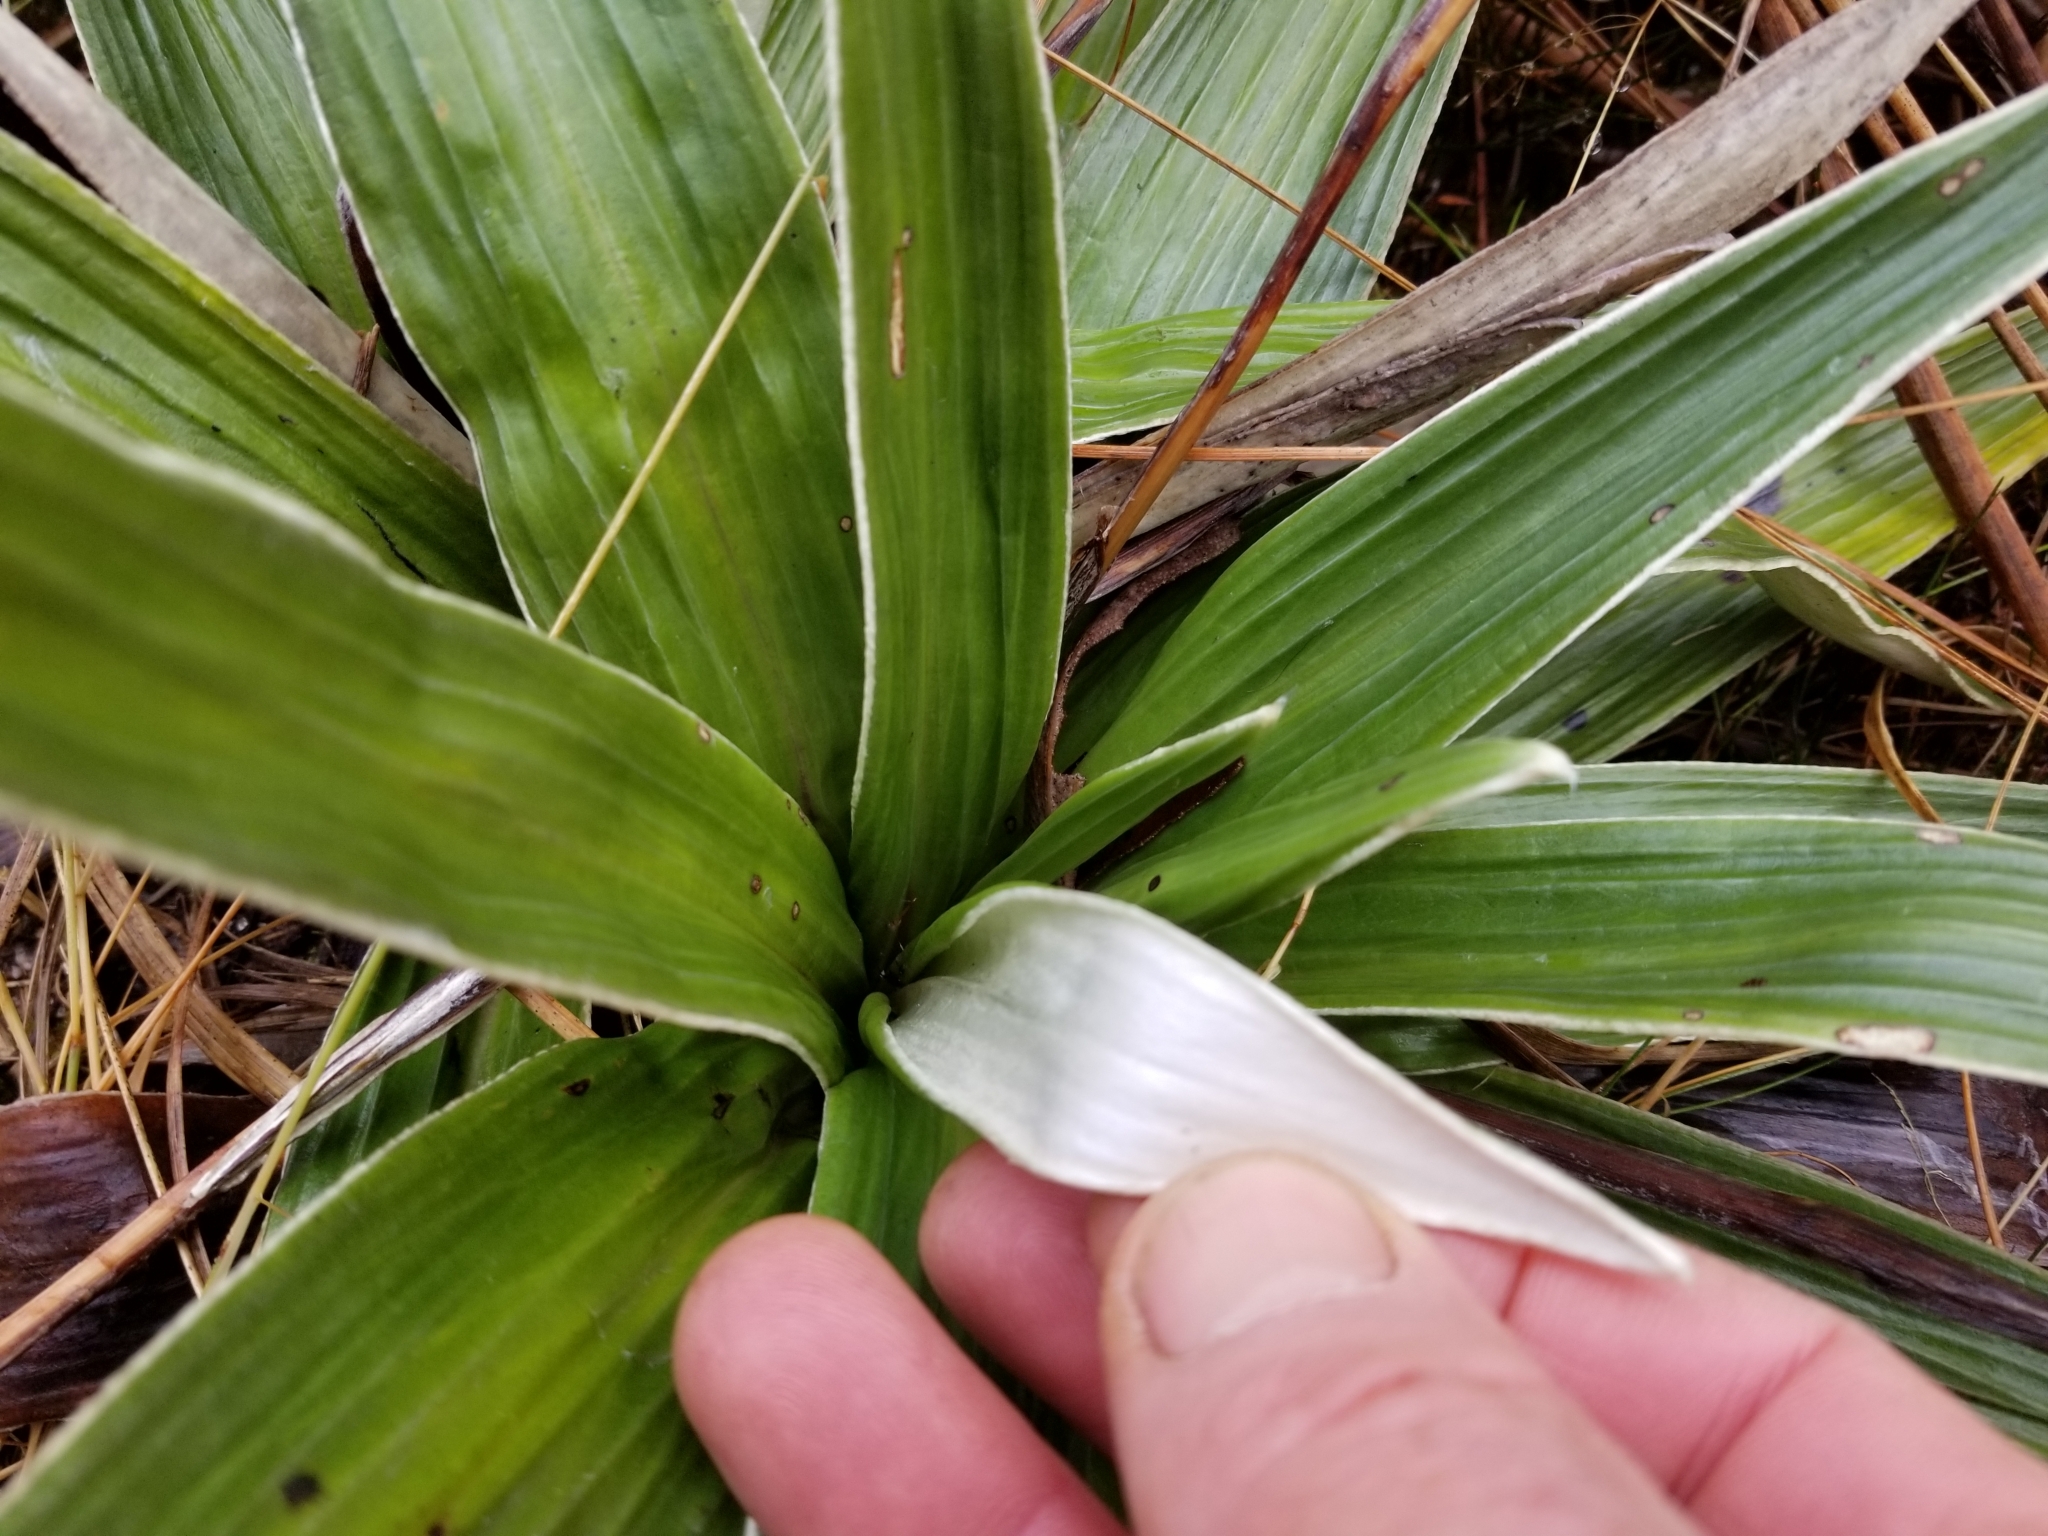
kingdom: Plantae
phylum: Tracheophyta
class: Magnoliopsida
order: Asterales
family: Asteraceae
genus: Celmisia
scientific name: Celmisia semicordata
